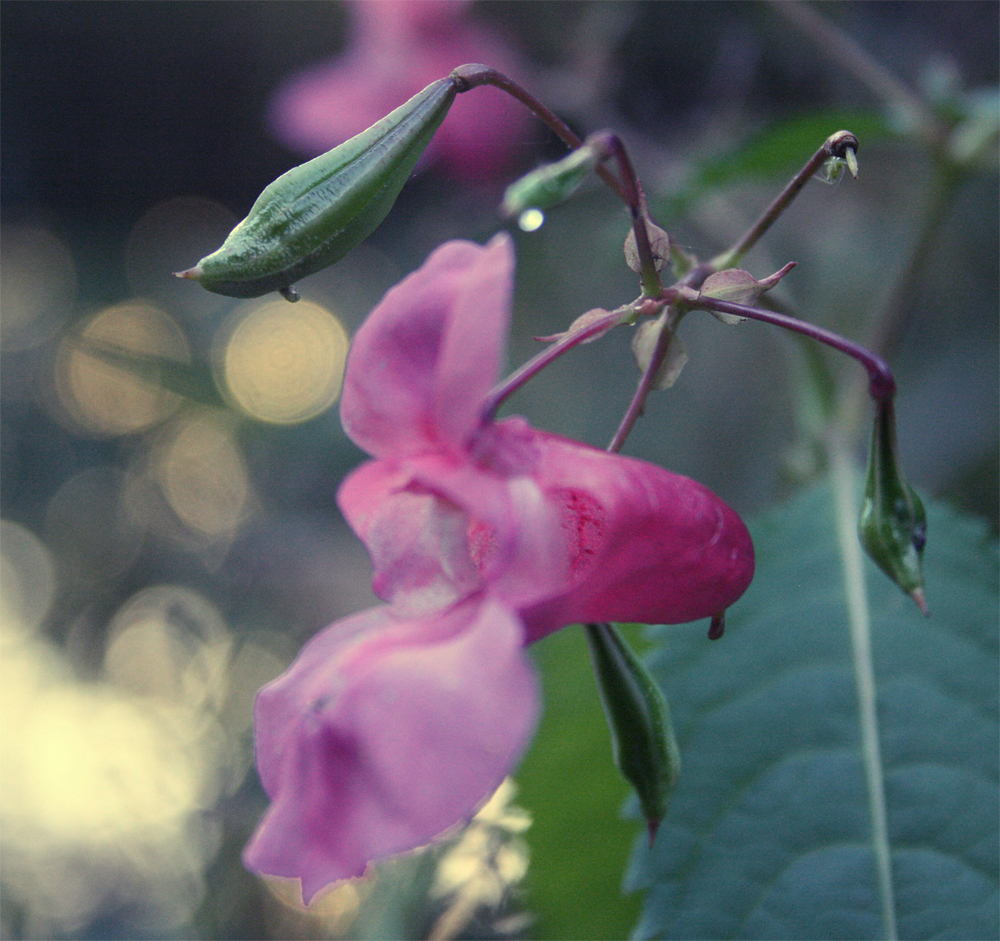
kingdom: Plantae
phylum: Tracheophyta
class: Magnoliopsida
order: Ericales
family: Balsaminaceae
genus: Impatiens
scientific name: Impatiens glandulifera
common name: Himalayan balsam
